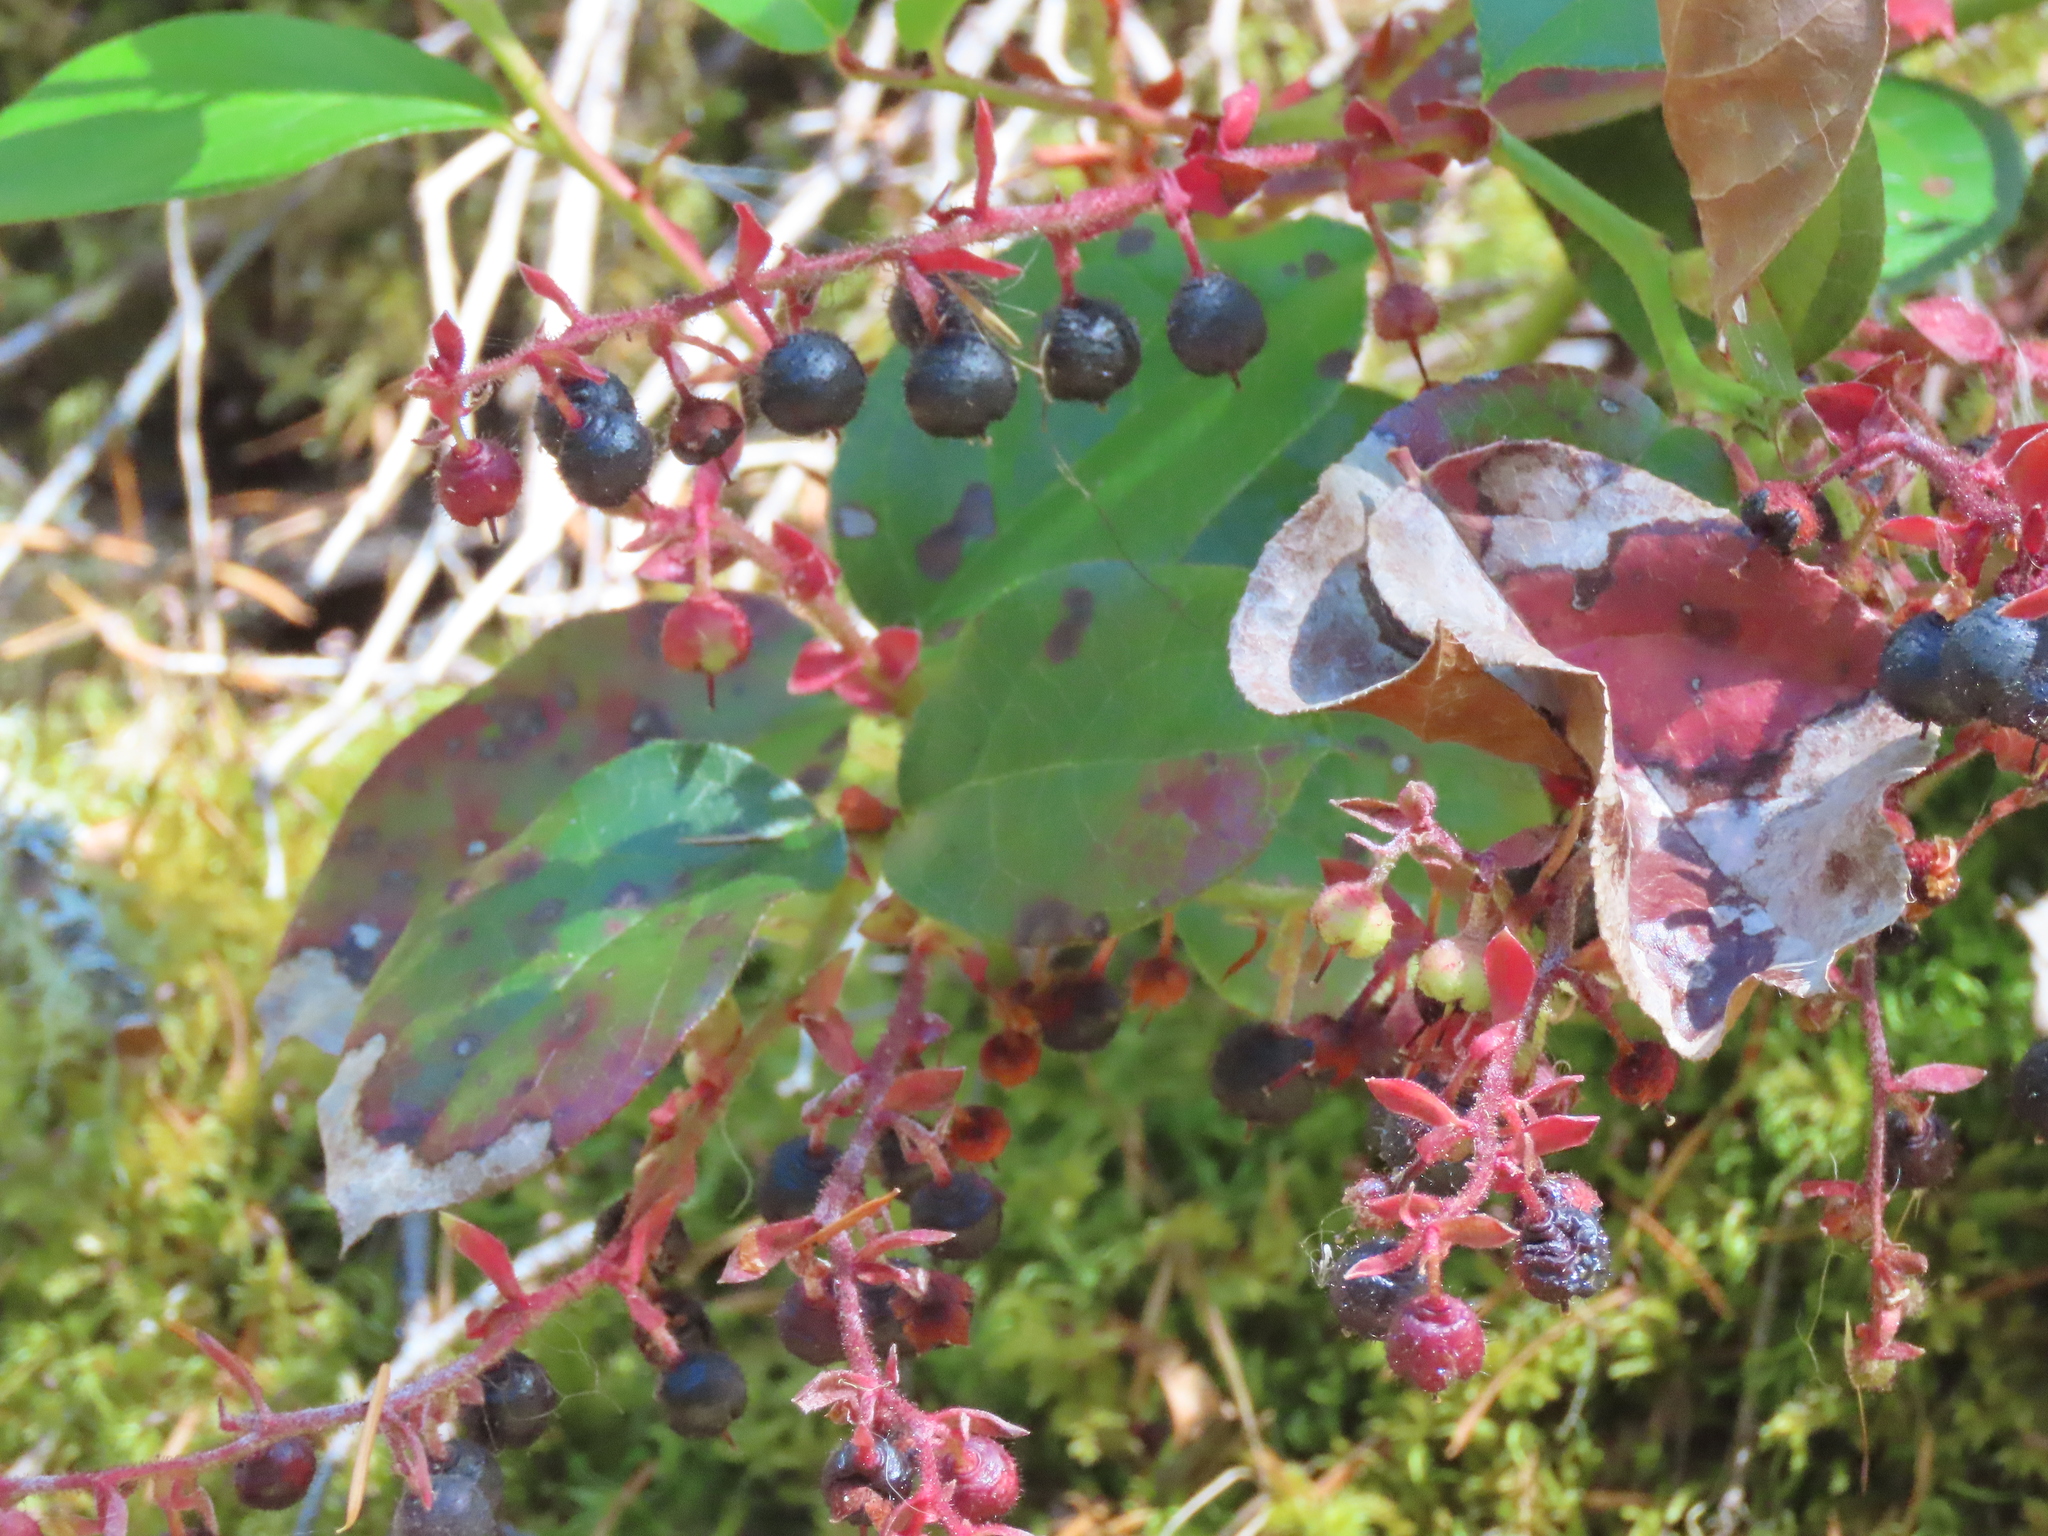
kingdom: Plantae
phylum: Tracheophyta
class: Magnoliopsida
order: Ericales
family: Ericaceae
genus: Gaultheria
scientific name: Gaultheria shallon
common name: Shallon
